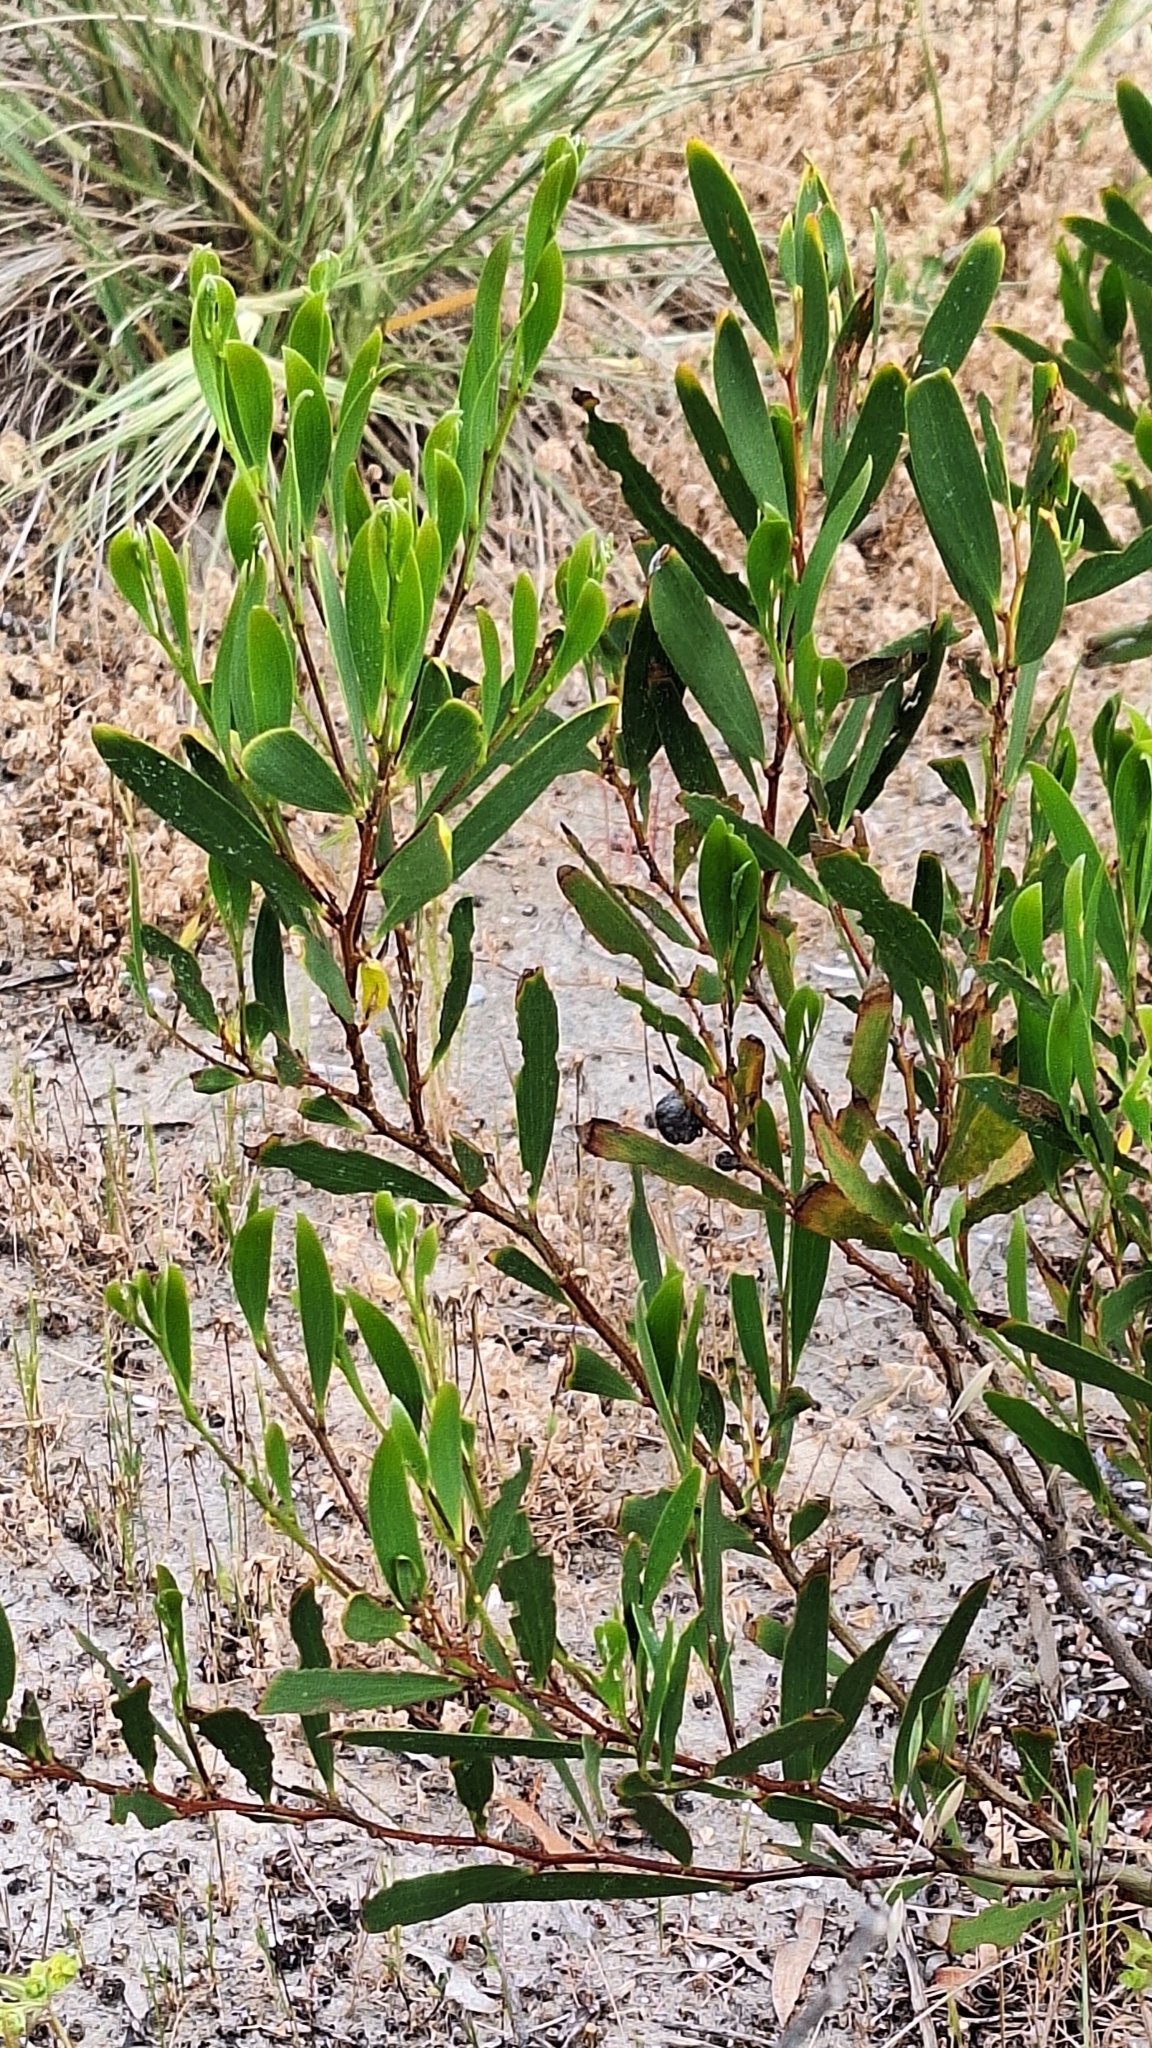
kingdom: Plantae
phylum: Tracheophyta
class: Magnoliopsida
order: Fabales
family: Fabaceae
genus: Acacia
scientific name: Acacia longifolia
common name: Sydney golden wattle
